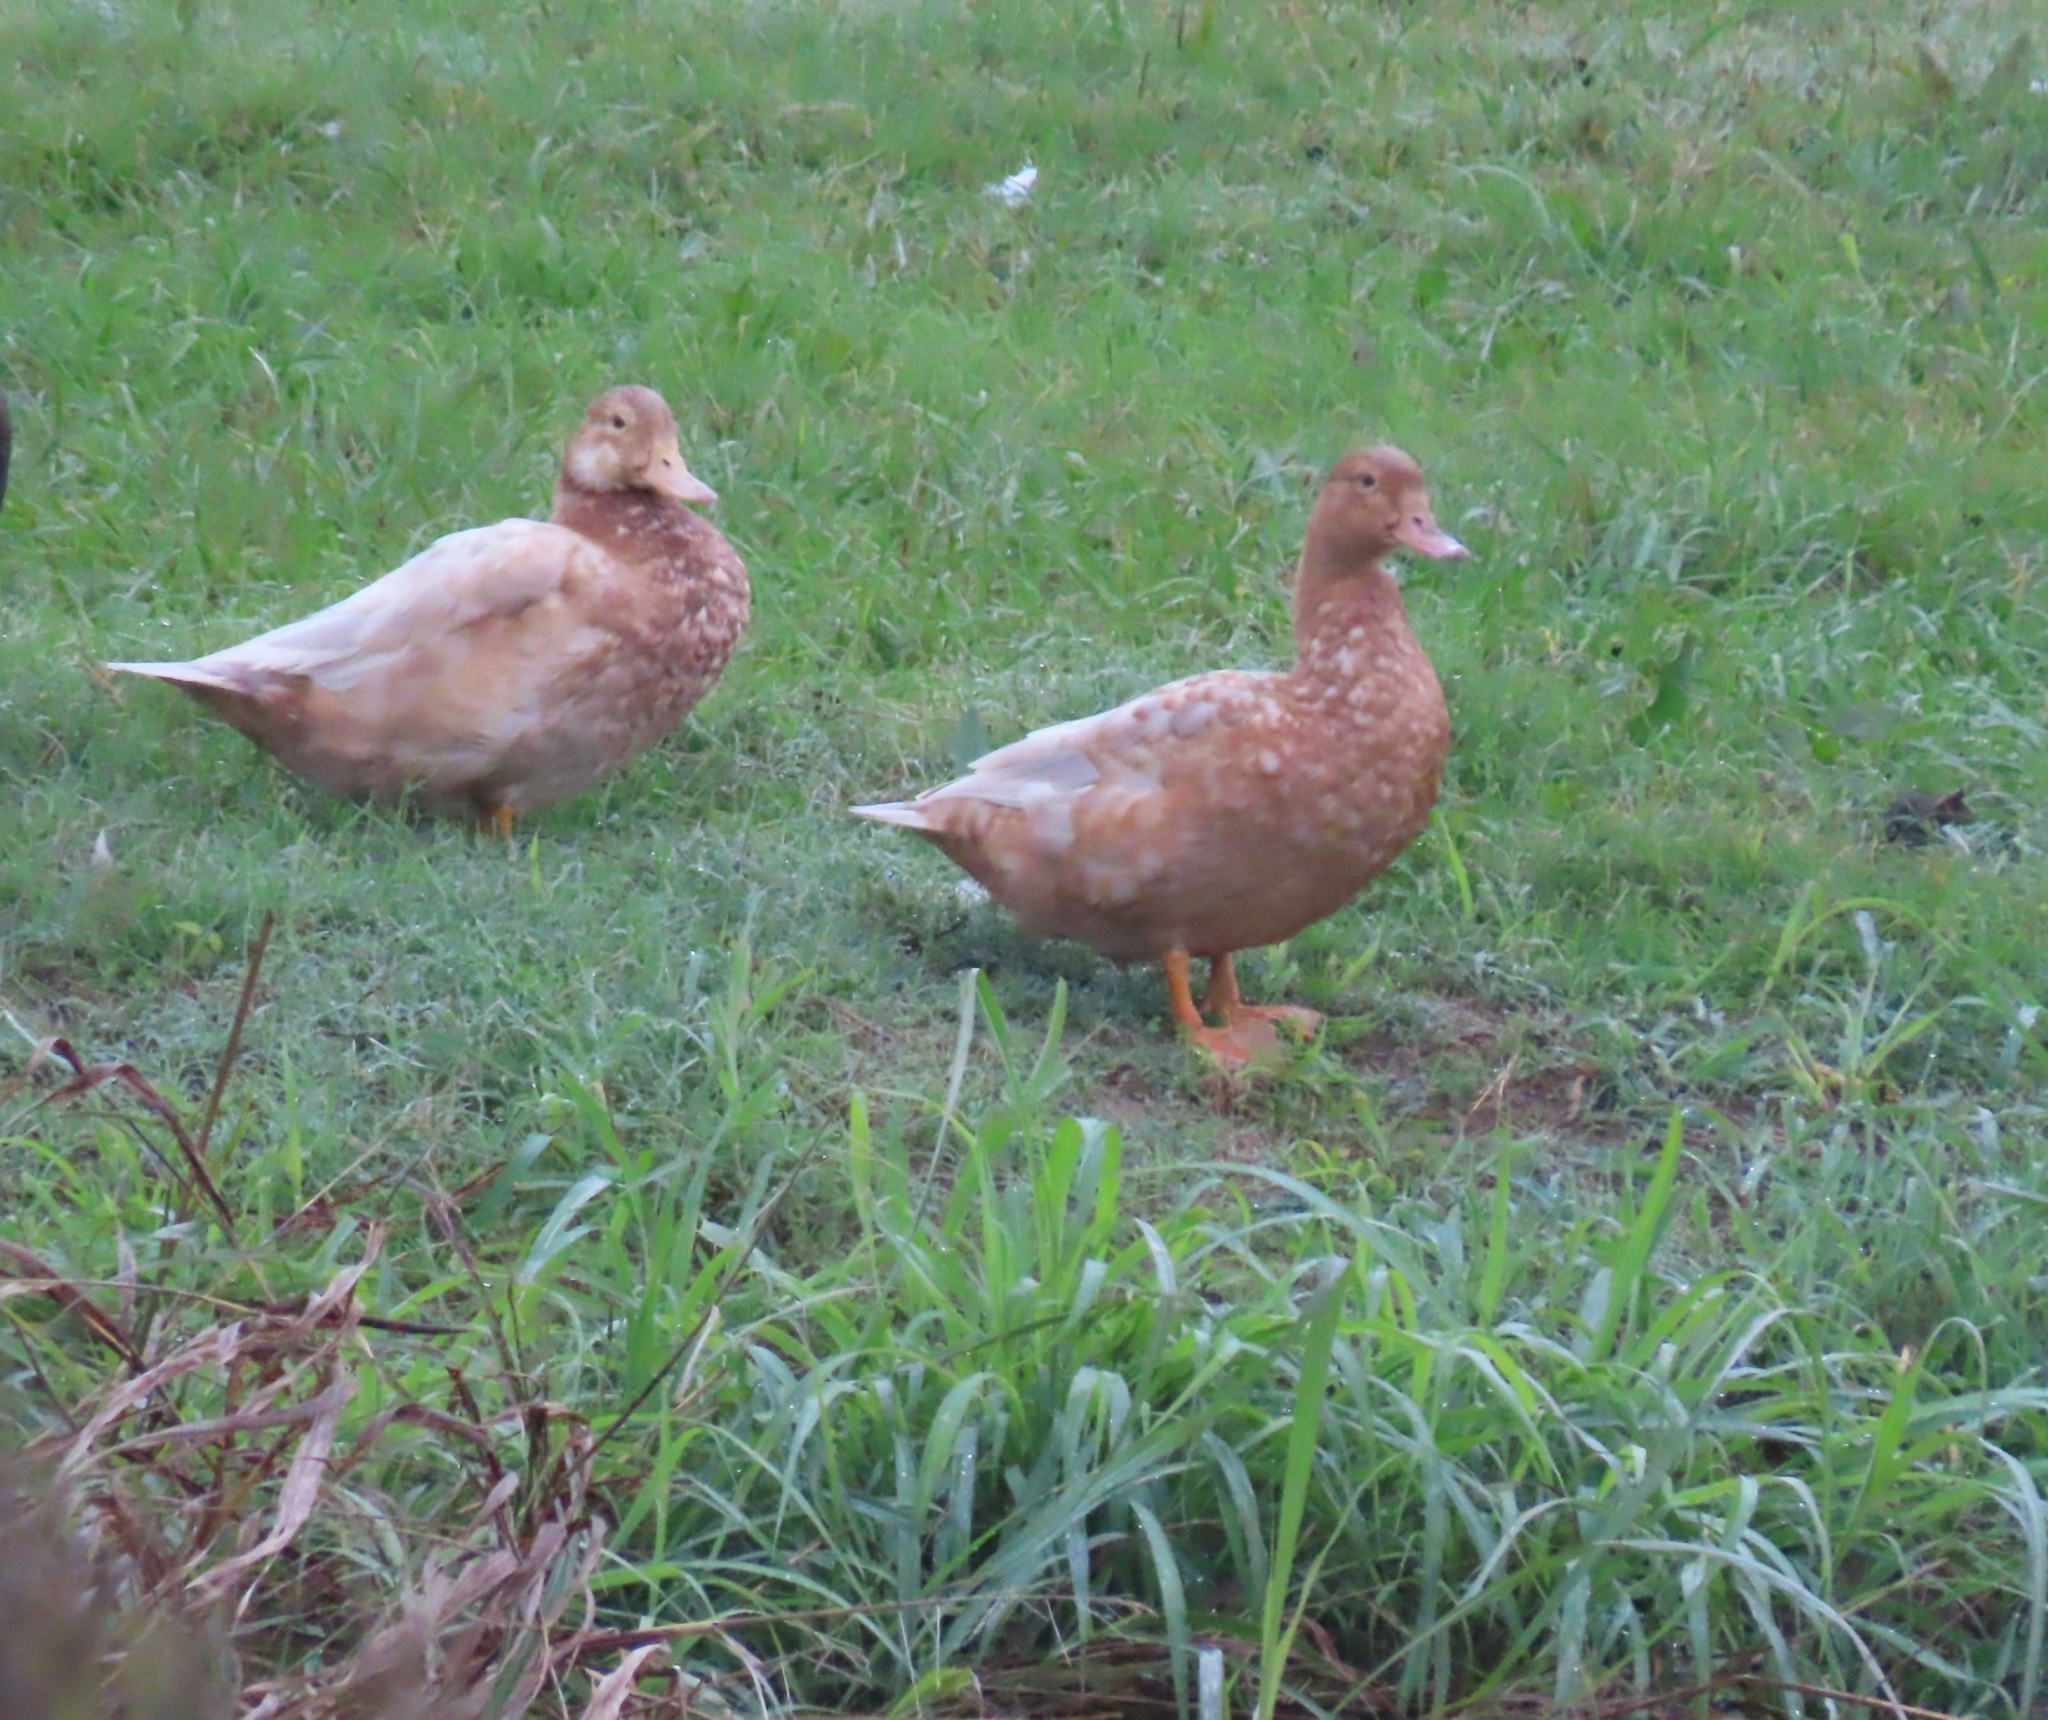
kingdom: Animalia
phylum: Chordata
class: Aves
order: Anseriformes
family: Anatidae
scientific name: Anatidae
